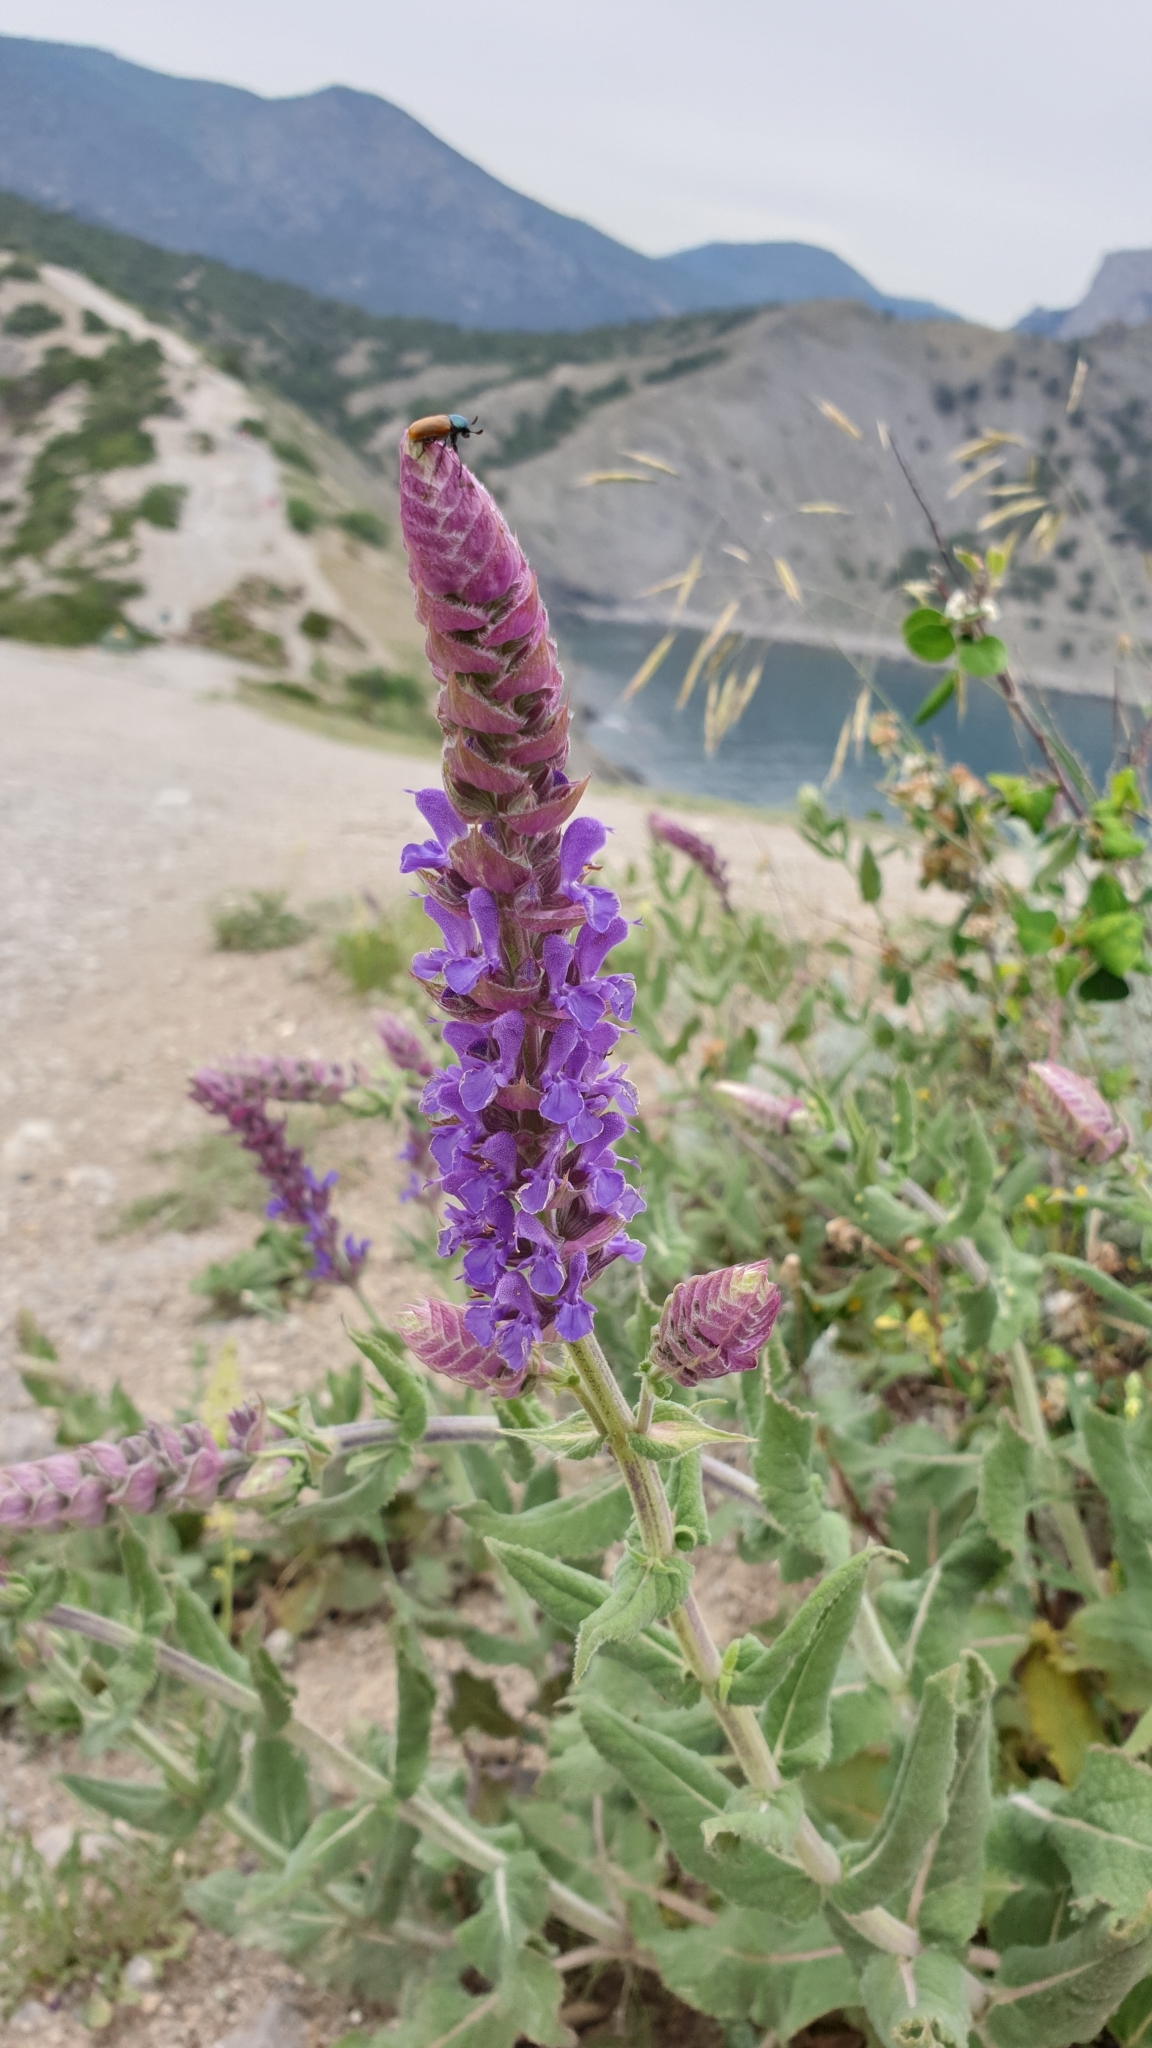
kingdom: Plantae
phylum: Tracheophyta
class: Magnoliopsida
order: Lamiales
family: Lamiaceae
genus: Salvia
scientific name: Salvia nemorosa
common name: Balkan clary
